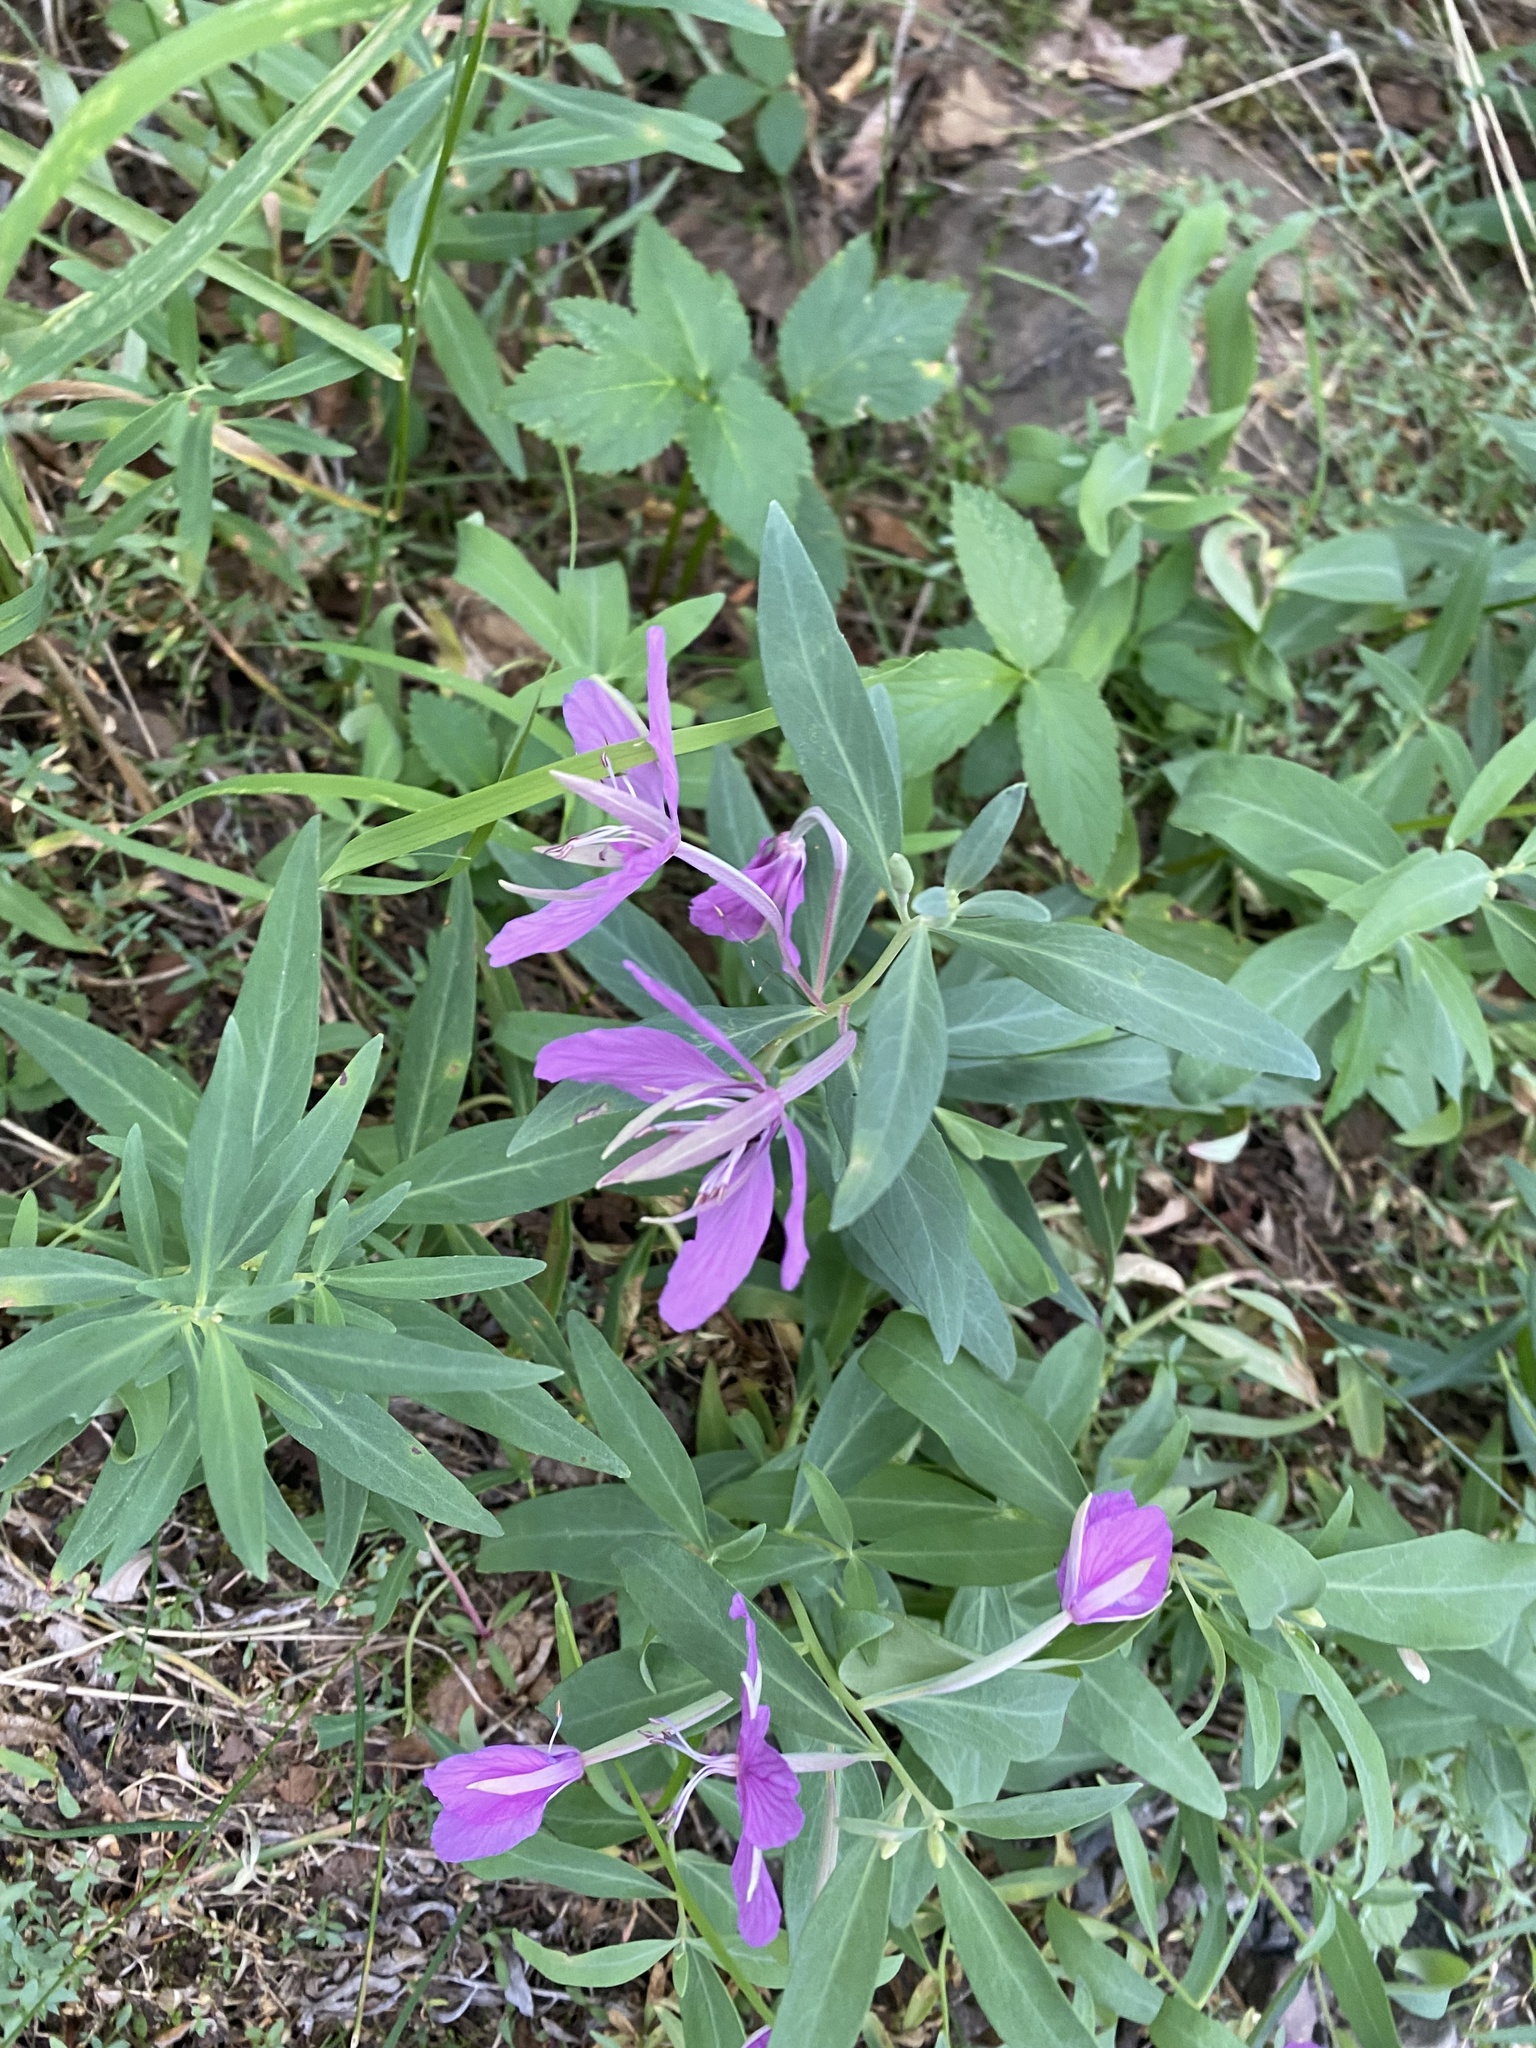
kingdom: Plantae
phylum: Tracheophyta
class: Magnoliopsida
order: Myrtales
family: Onagraceae
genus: Chamaenerion
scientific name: Chamaenerion latifolium
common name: Dwarf fireweed
